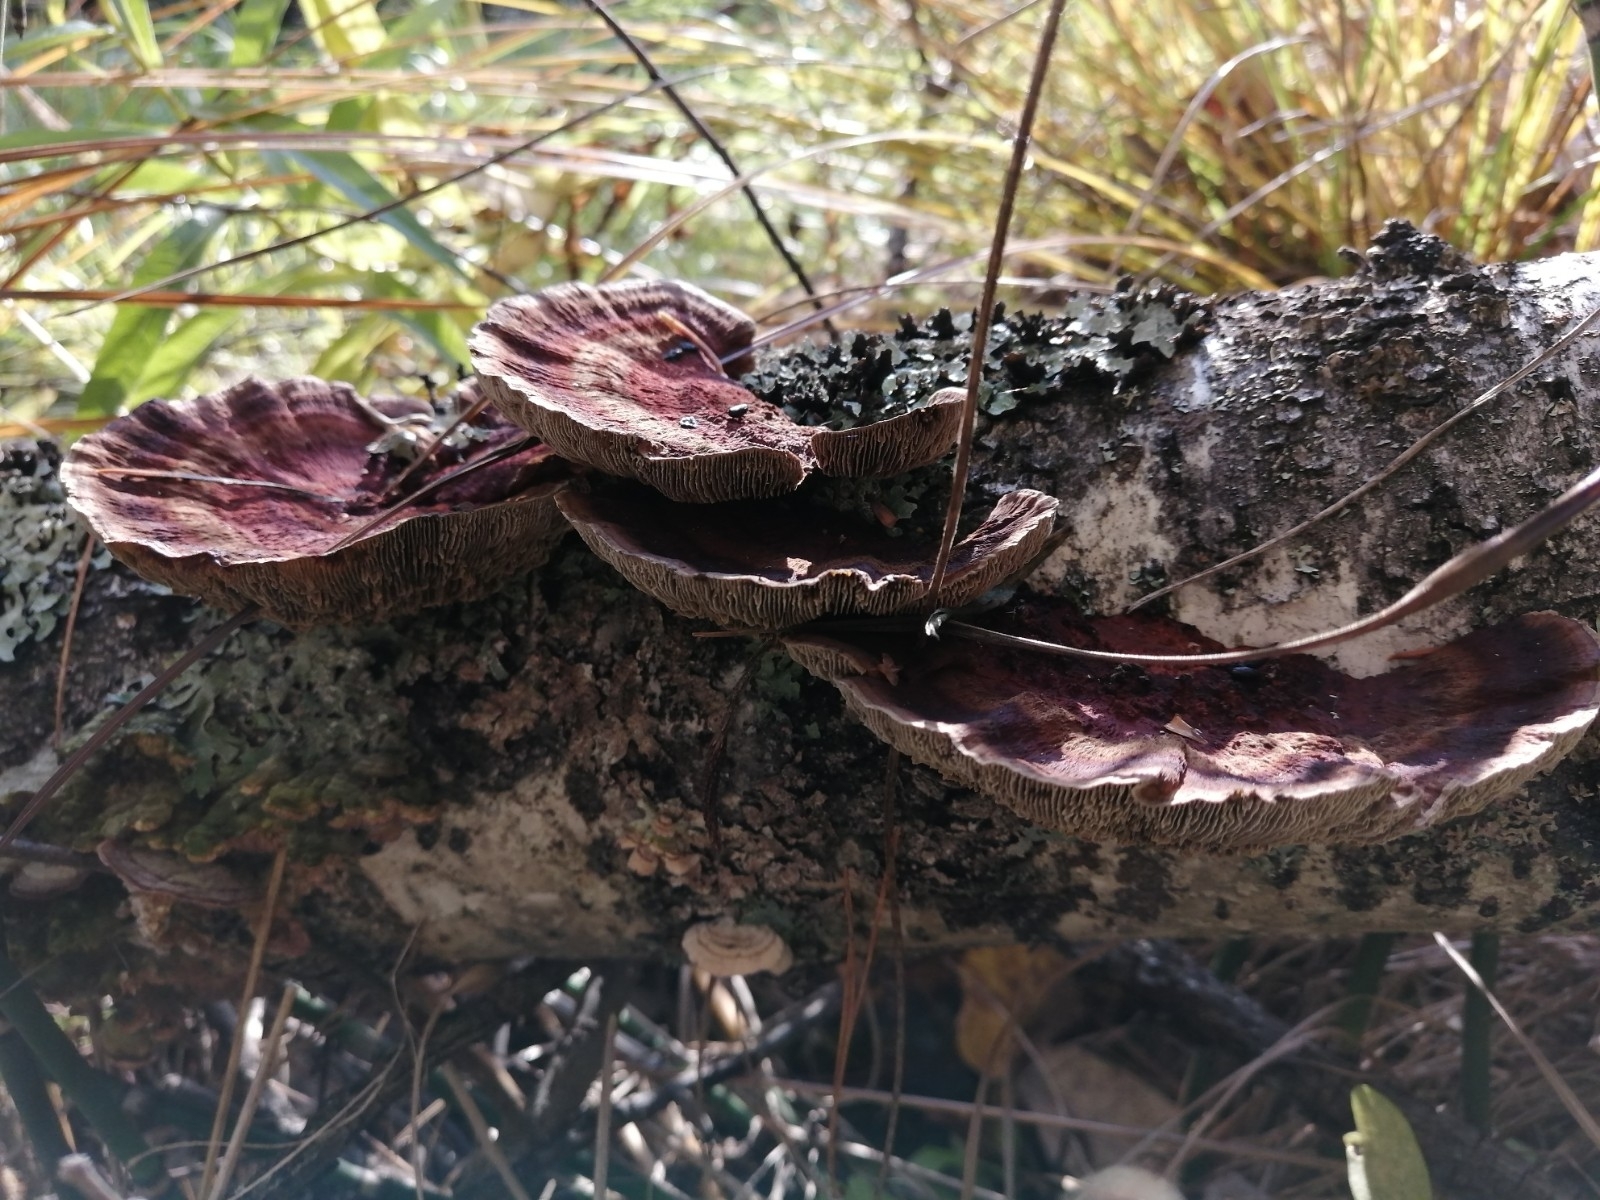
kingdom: Fungi
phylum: Basidiomycota
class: Agaricomycetes
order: Polyporales
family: Polyporaceae
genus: Daedaleopsis
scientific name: Daedaleopsis tricolor
